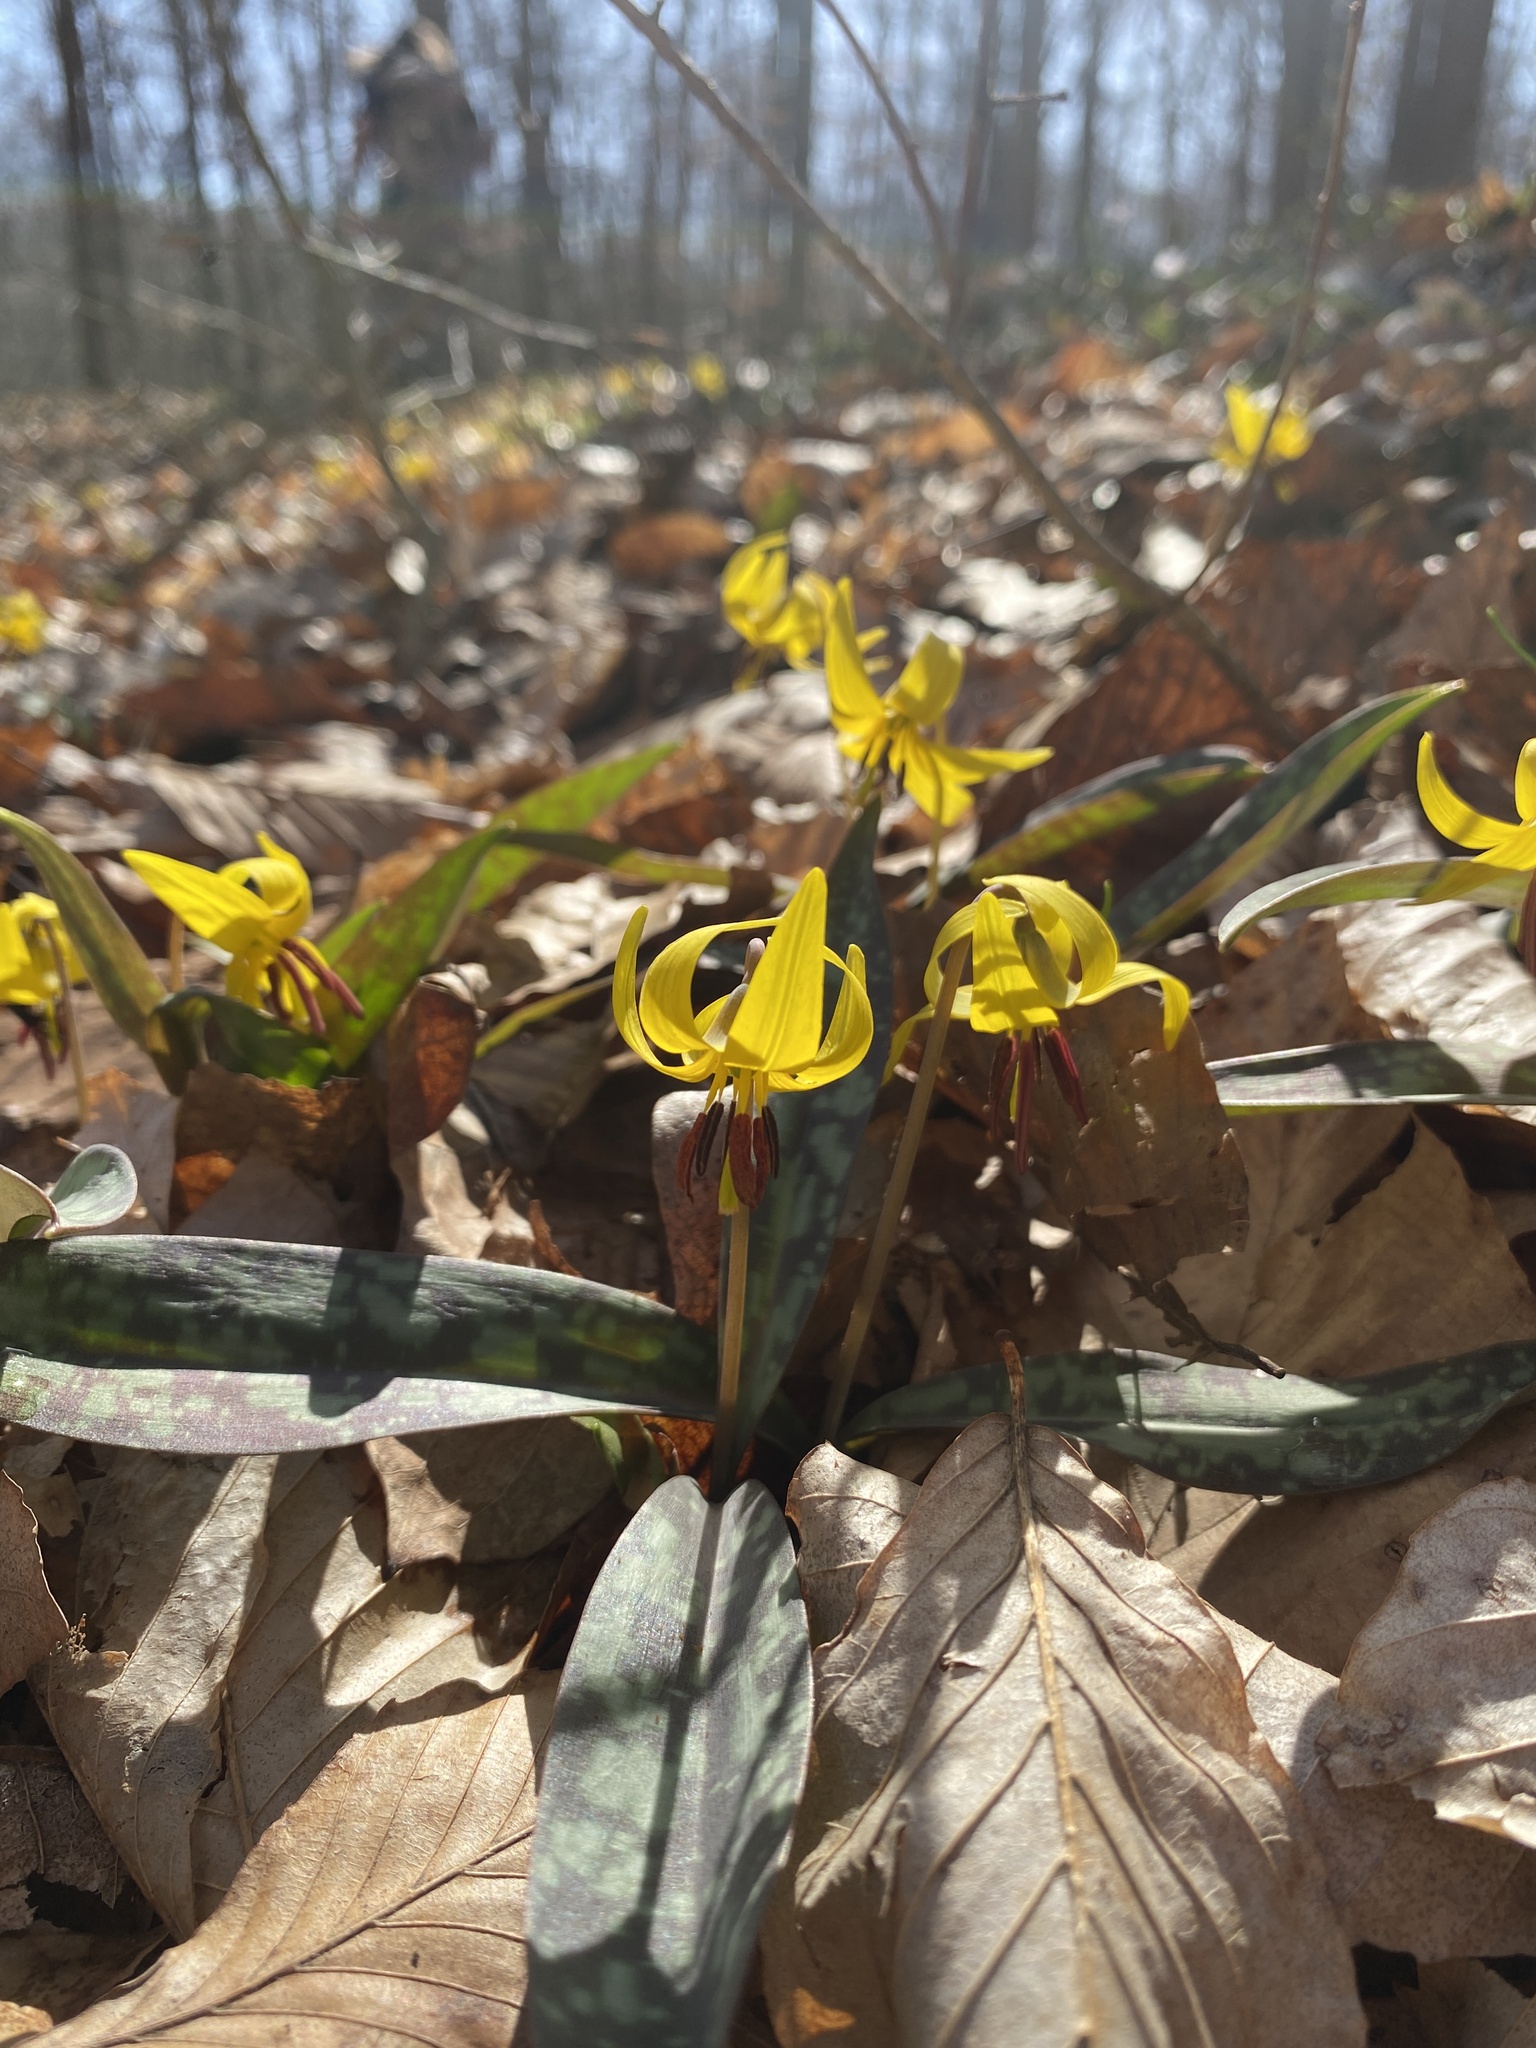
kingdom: Plantae
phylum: Tracheophyta
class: Liliopsida
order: Liliales
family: Liliaceae
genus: Erythronium
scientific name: Erythronium americanum
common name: Yellow adder's-tongue
